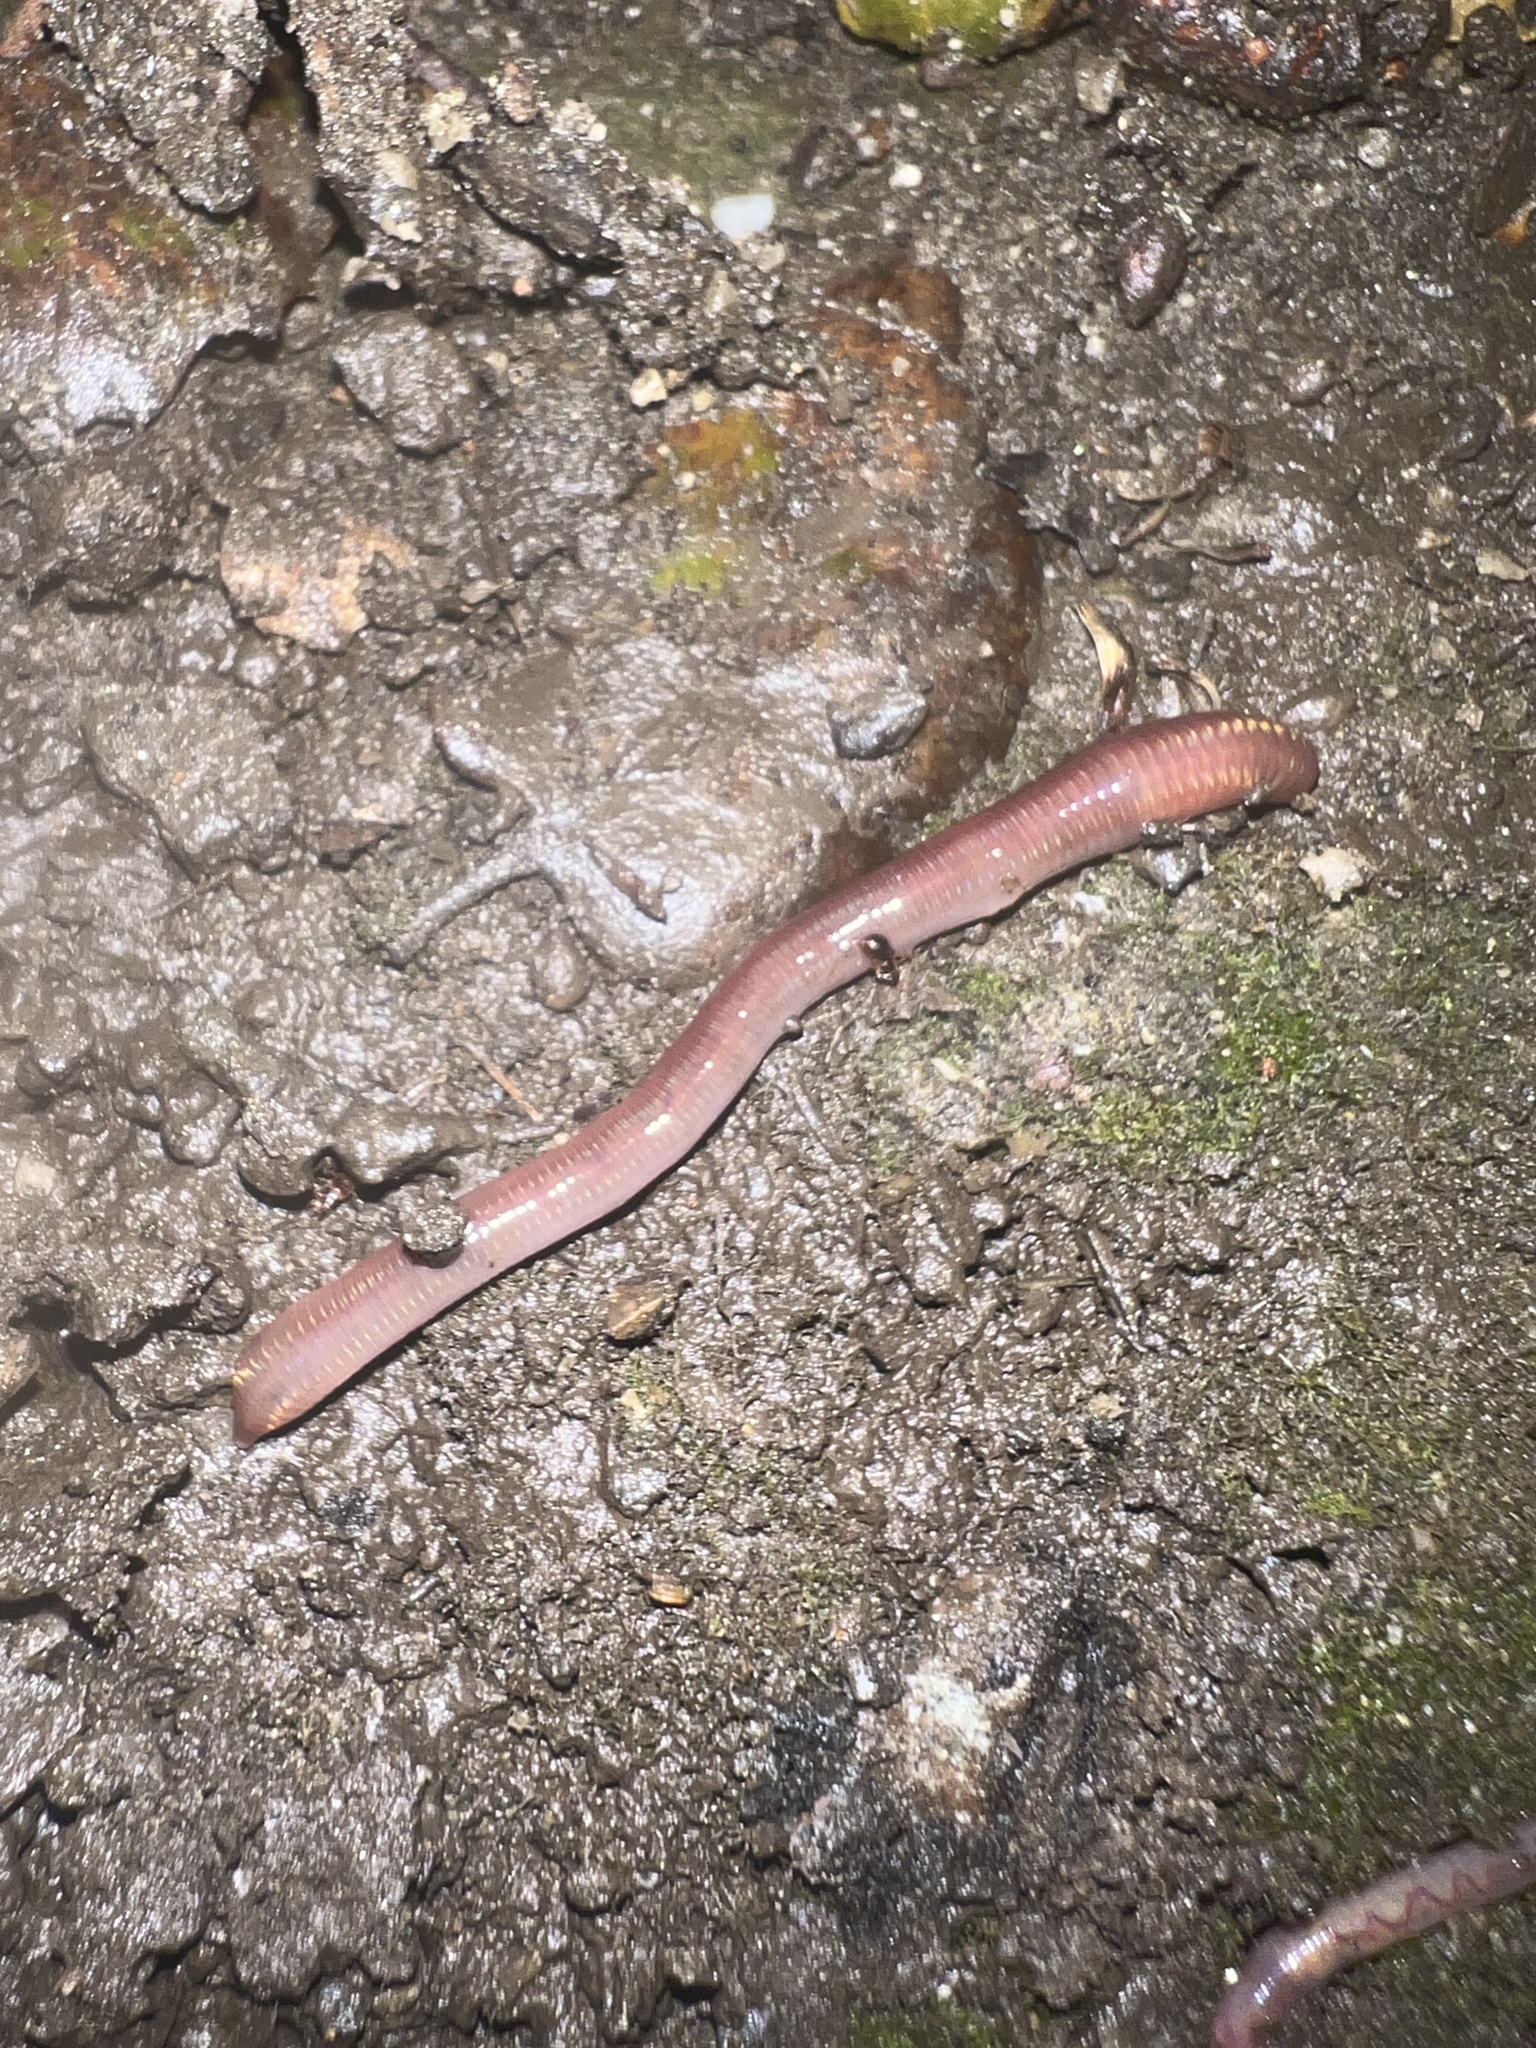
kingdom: Animalia
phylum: Annelida
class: Clitellata
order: Crassiclitellata
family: Lumbricidae
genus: Lumbricus
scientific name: Lumbricus terrestris
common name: Common earthworm
